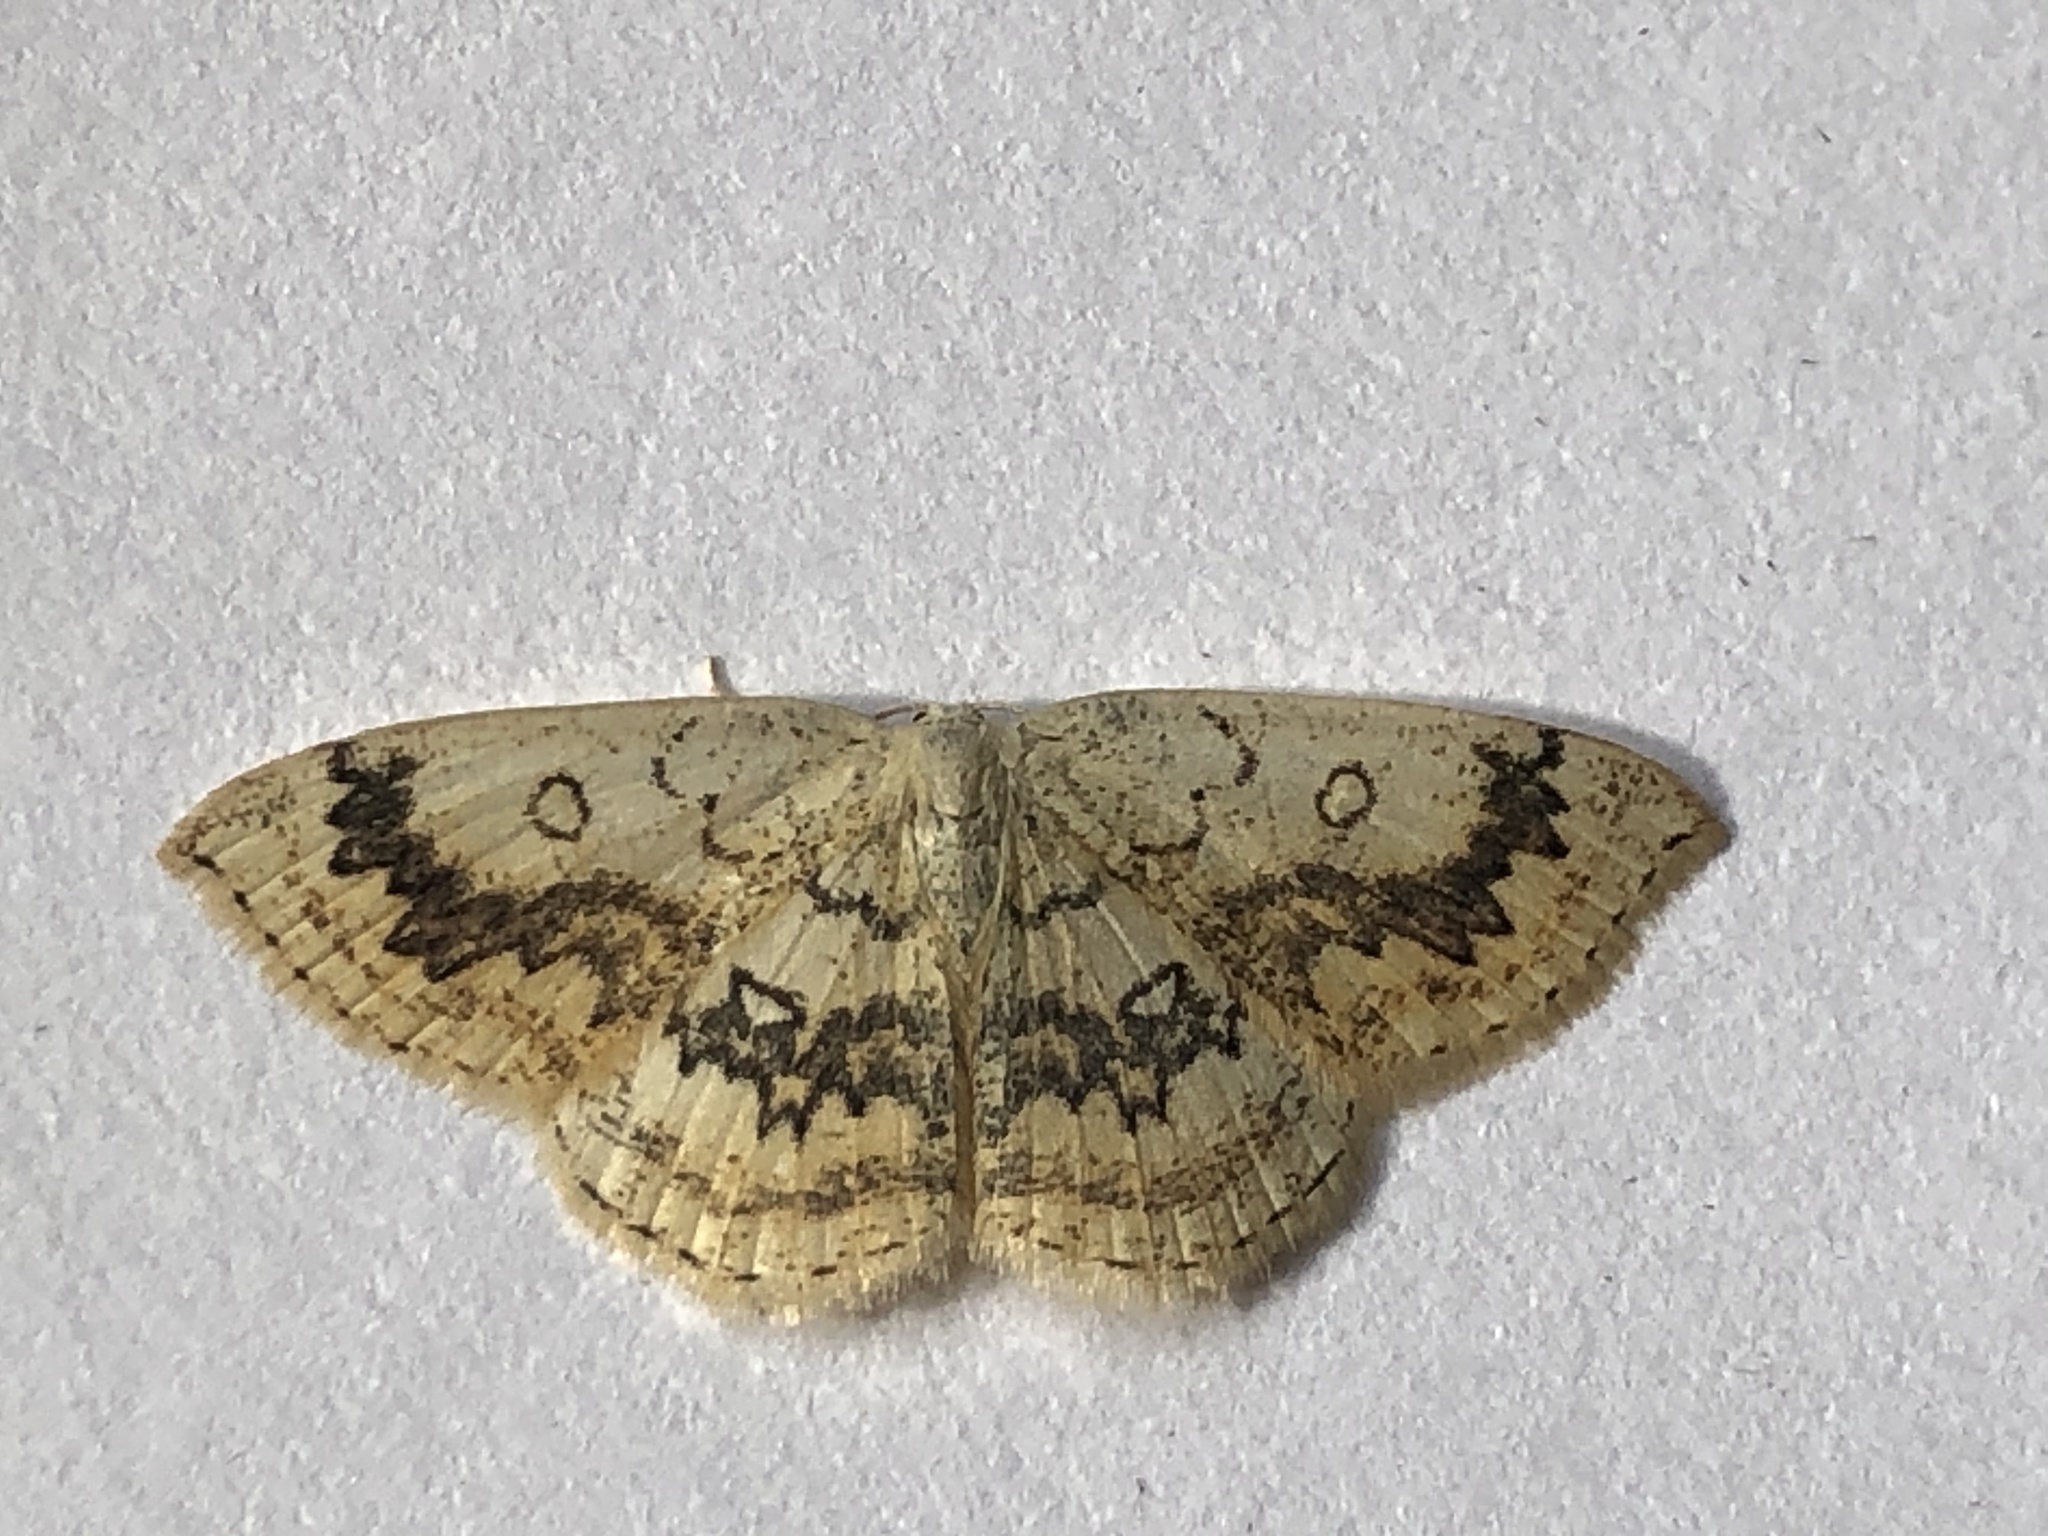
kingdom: Animalia
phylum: Arthropoda
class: Insecta
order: Lepidoptera
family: Geometridae
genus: Cyclophora
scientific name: Cyclophora annularia
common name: Mocha
